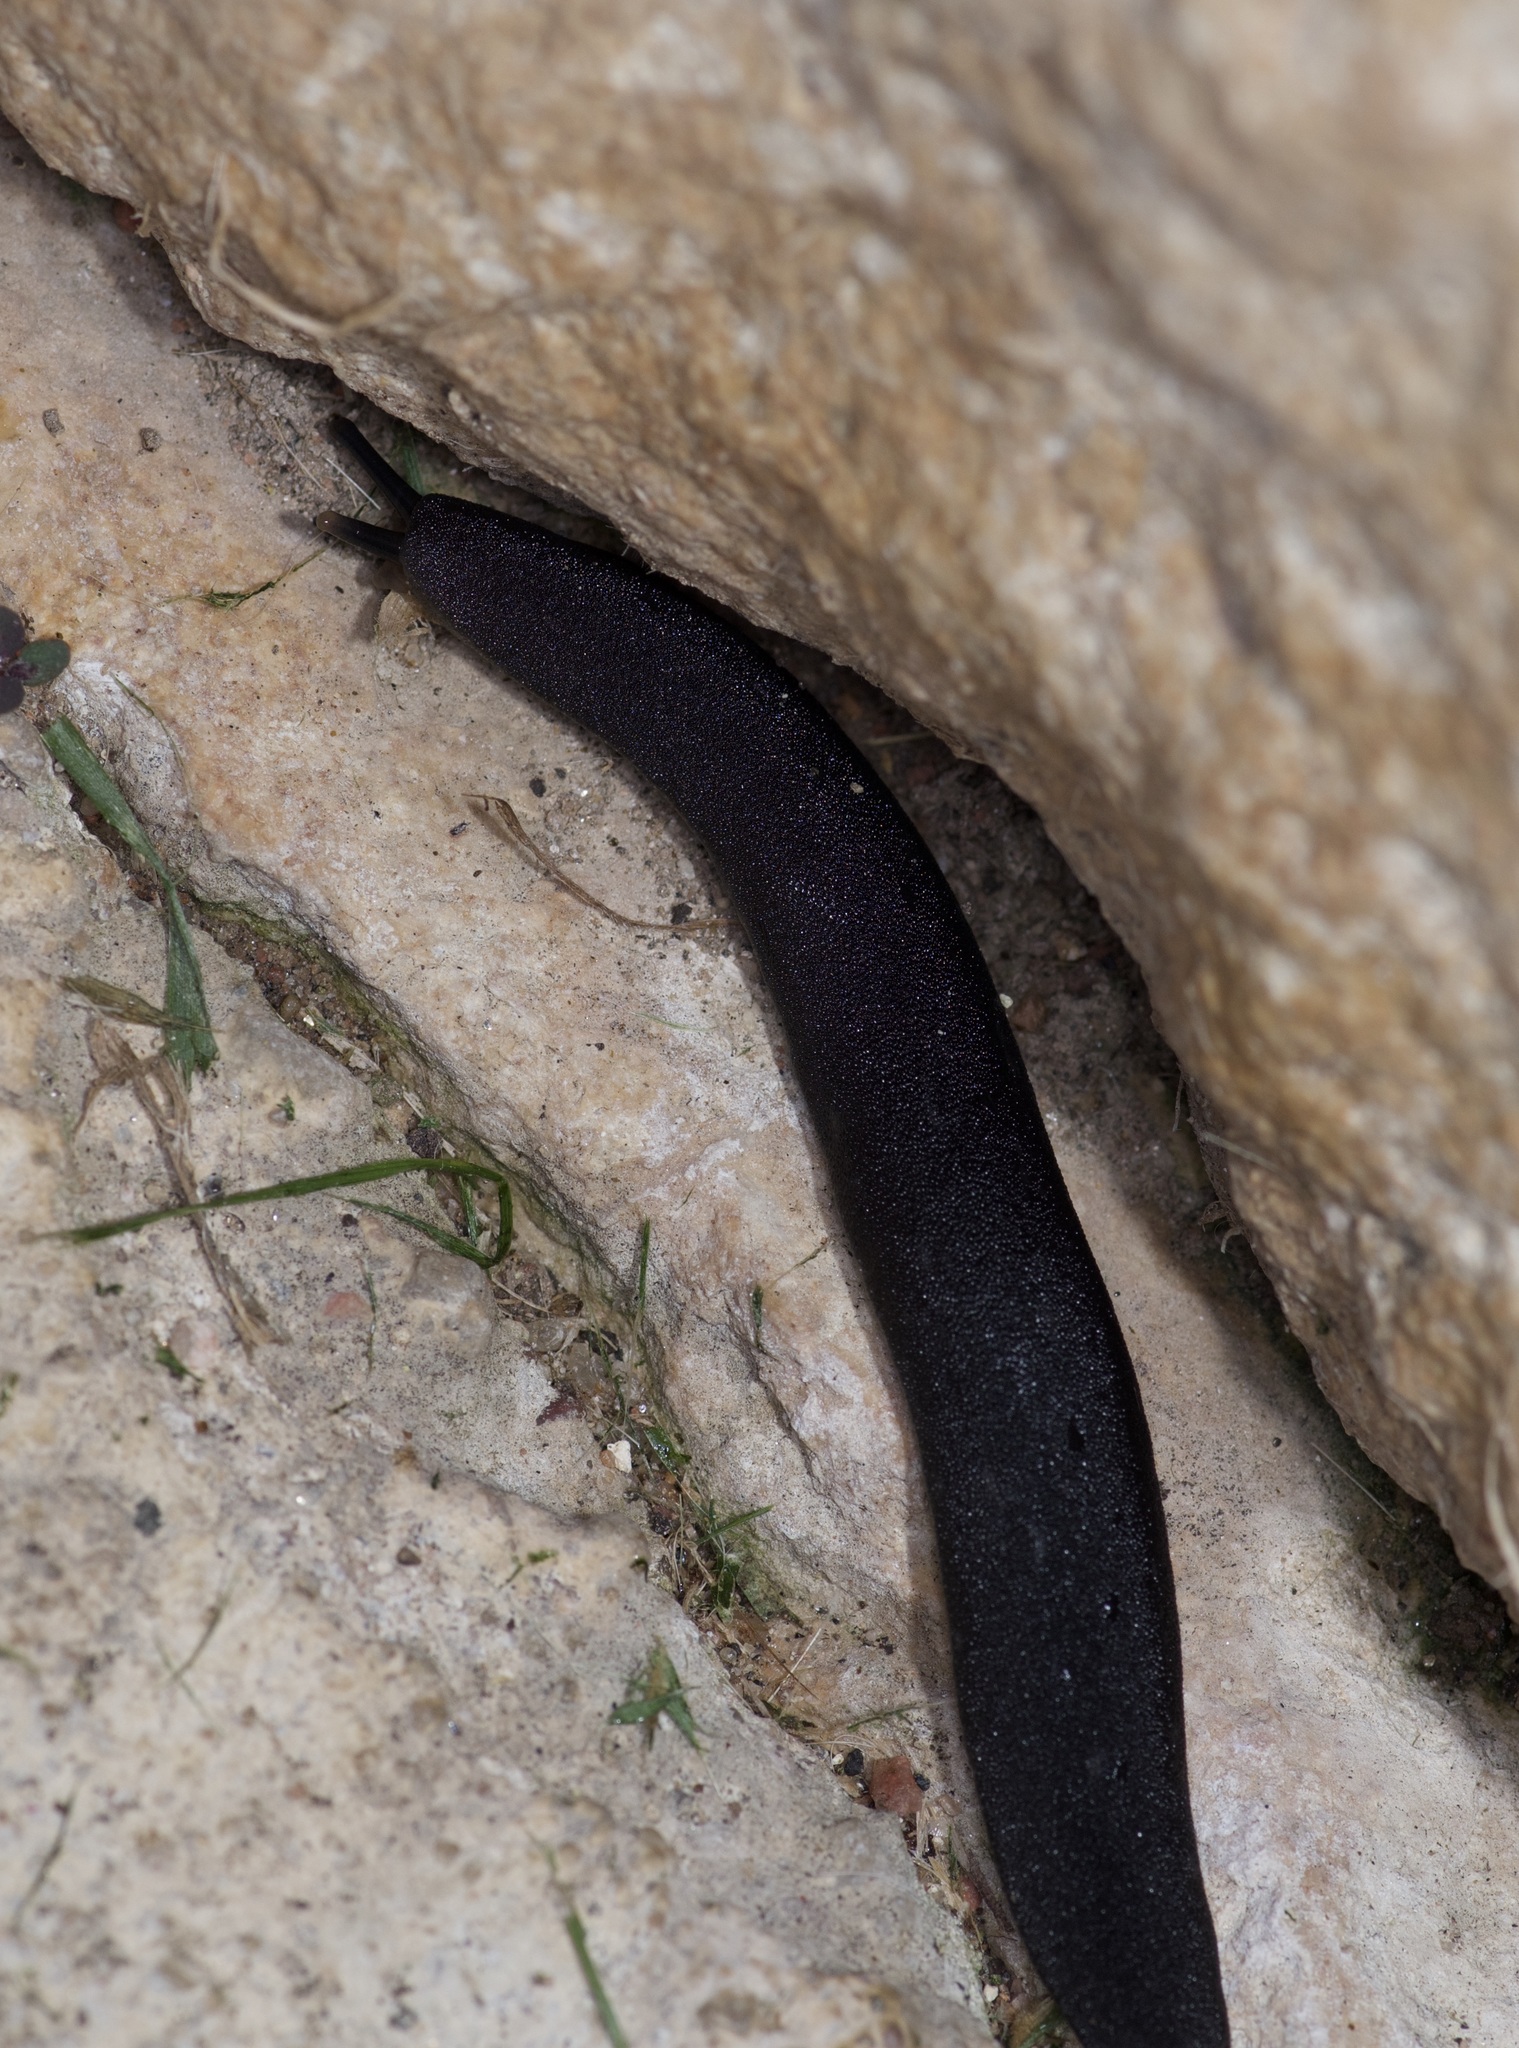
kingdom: Animalia
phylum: Mollusca
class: Gastropoda
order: Systellommatophora
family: Veronicellidae
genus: Belocaulus
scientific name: Belocaulus angustipes
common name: Black velvet leatherleaf slug
